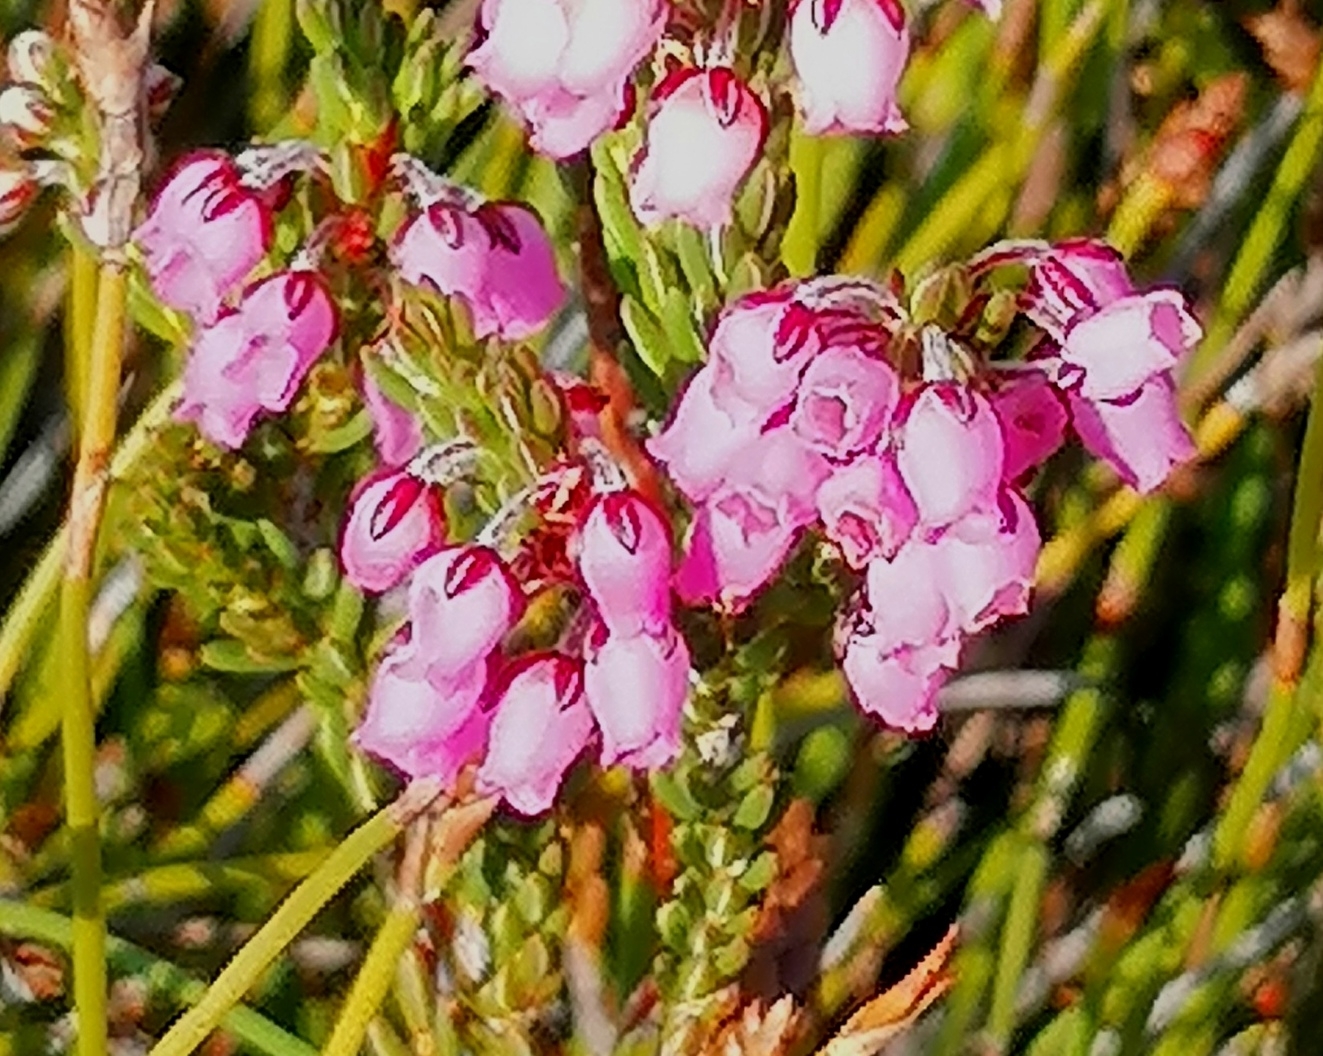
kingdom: Plantae
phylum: Tracheophyta
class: Magnoliopsida
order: Ericales
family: Ericaceae
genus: Erica
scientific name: Erica pulchella
